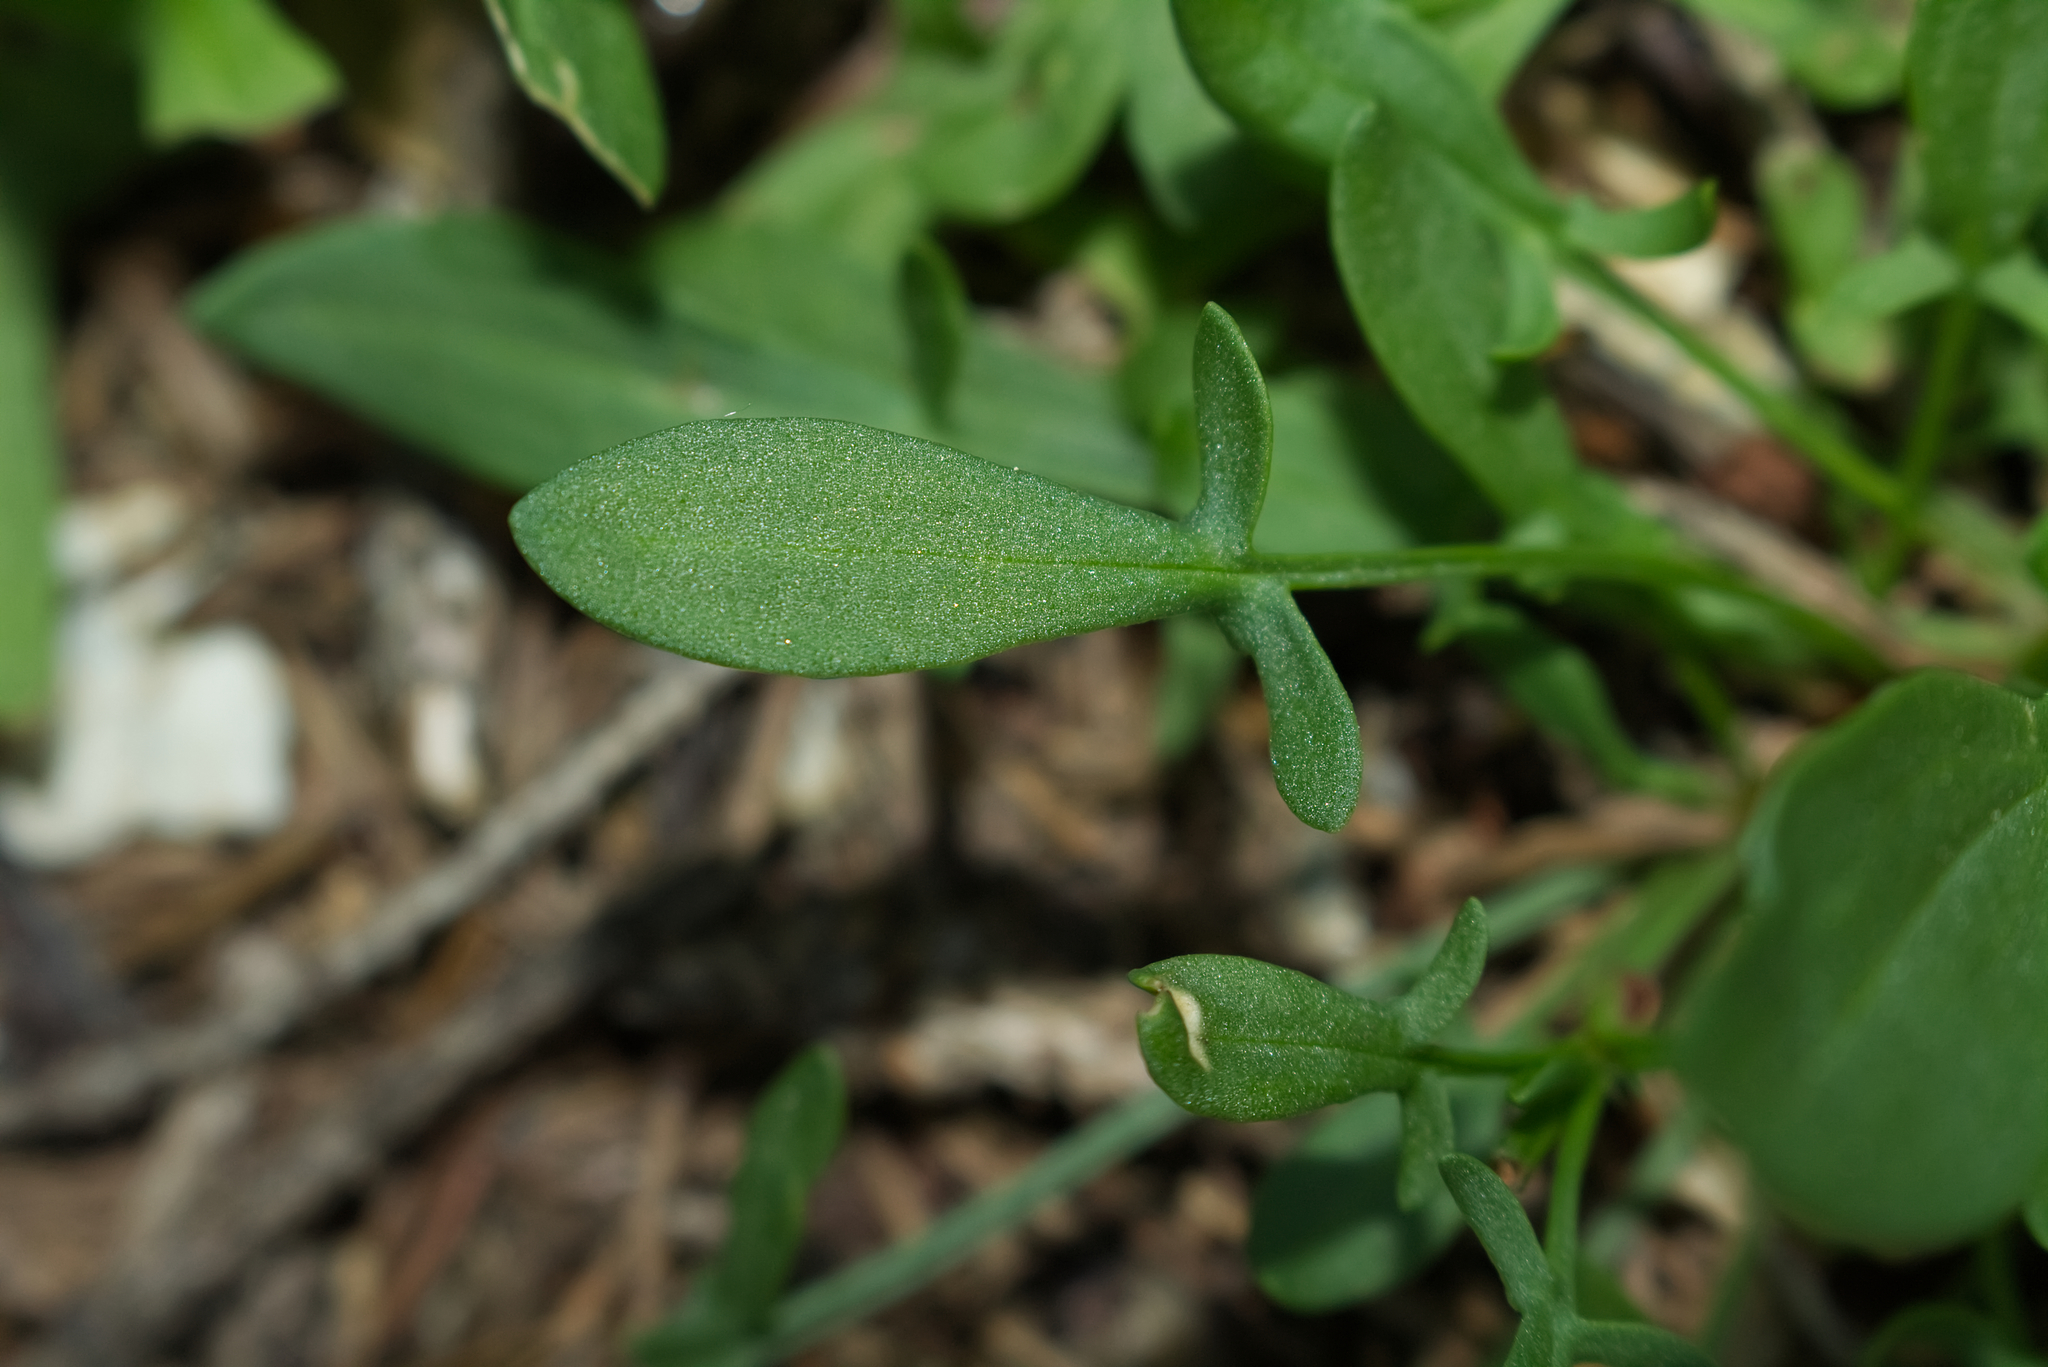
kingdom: Plantae
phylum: Tracheophyta
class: Magnoliopsida
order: Caryophyllales
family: Polygonaceae
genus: Rumex
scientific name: Rumex acetosella
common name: Common sheep sorrel
